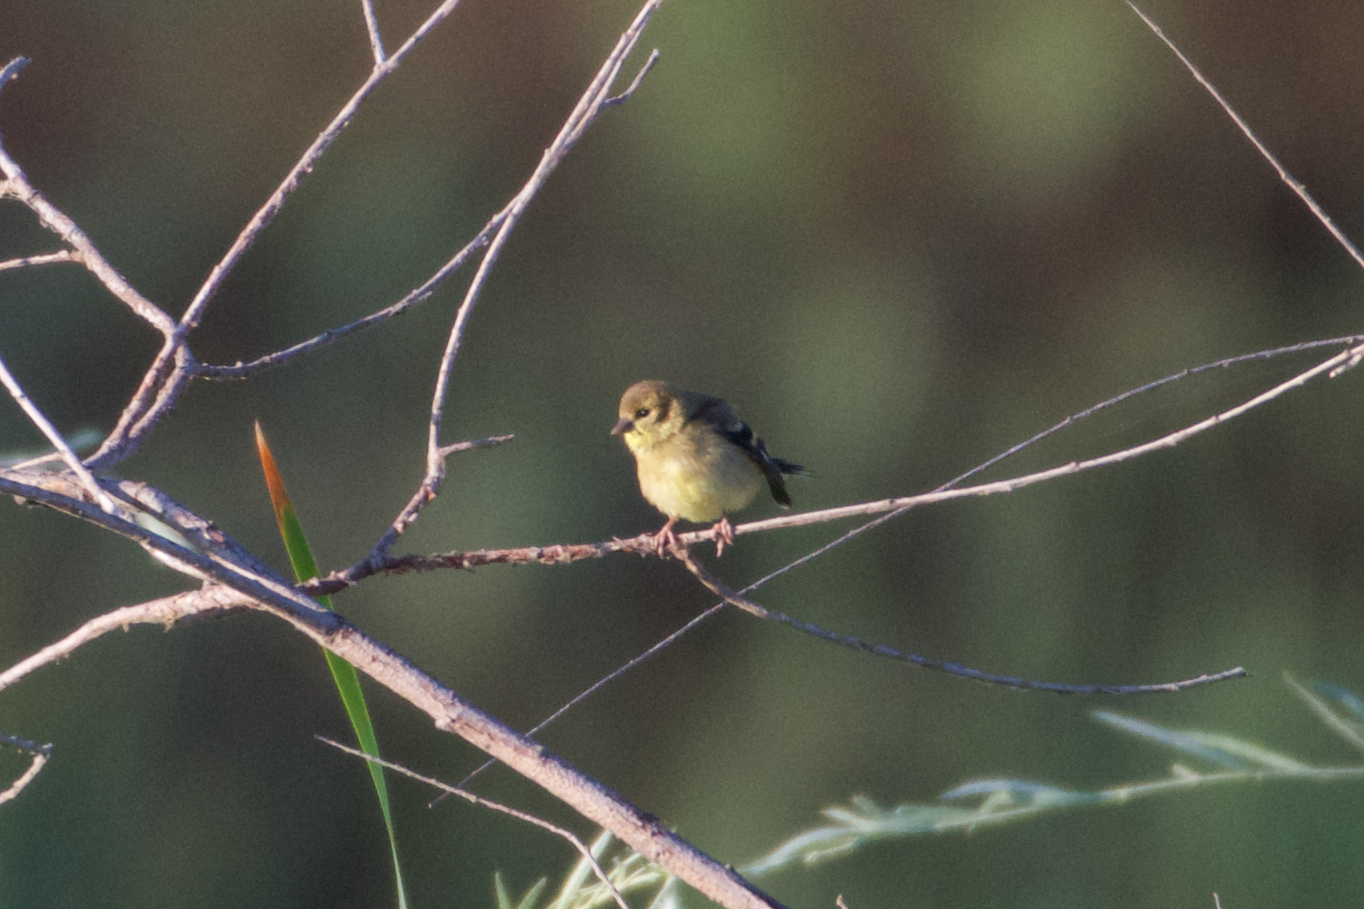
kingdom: Animalia
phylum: Chordata
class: Aves
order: Passeriformes
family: Fringillidae
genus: Spinus
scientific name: Spinus tristis
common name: American goldfinch
